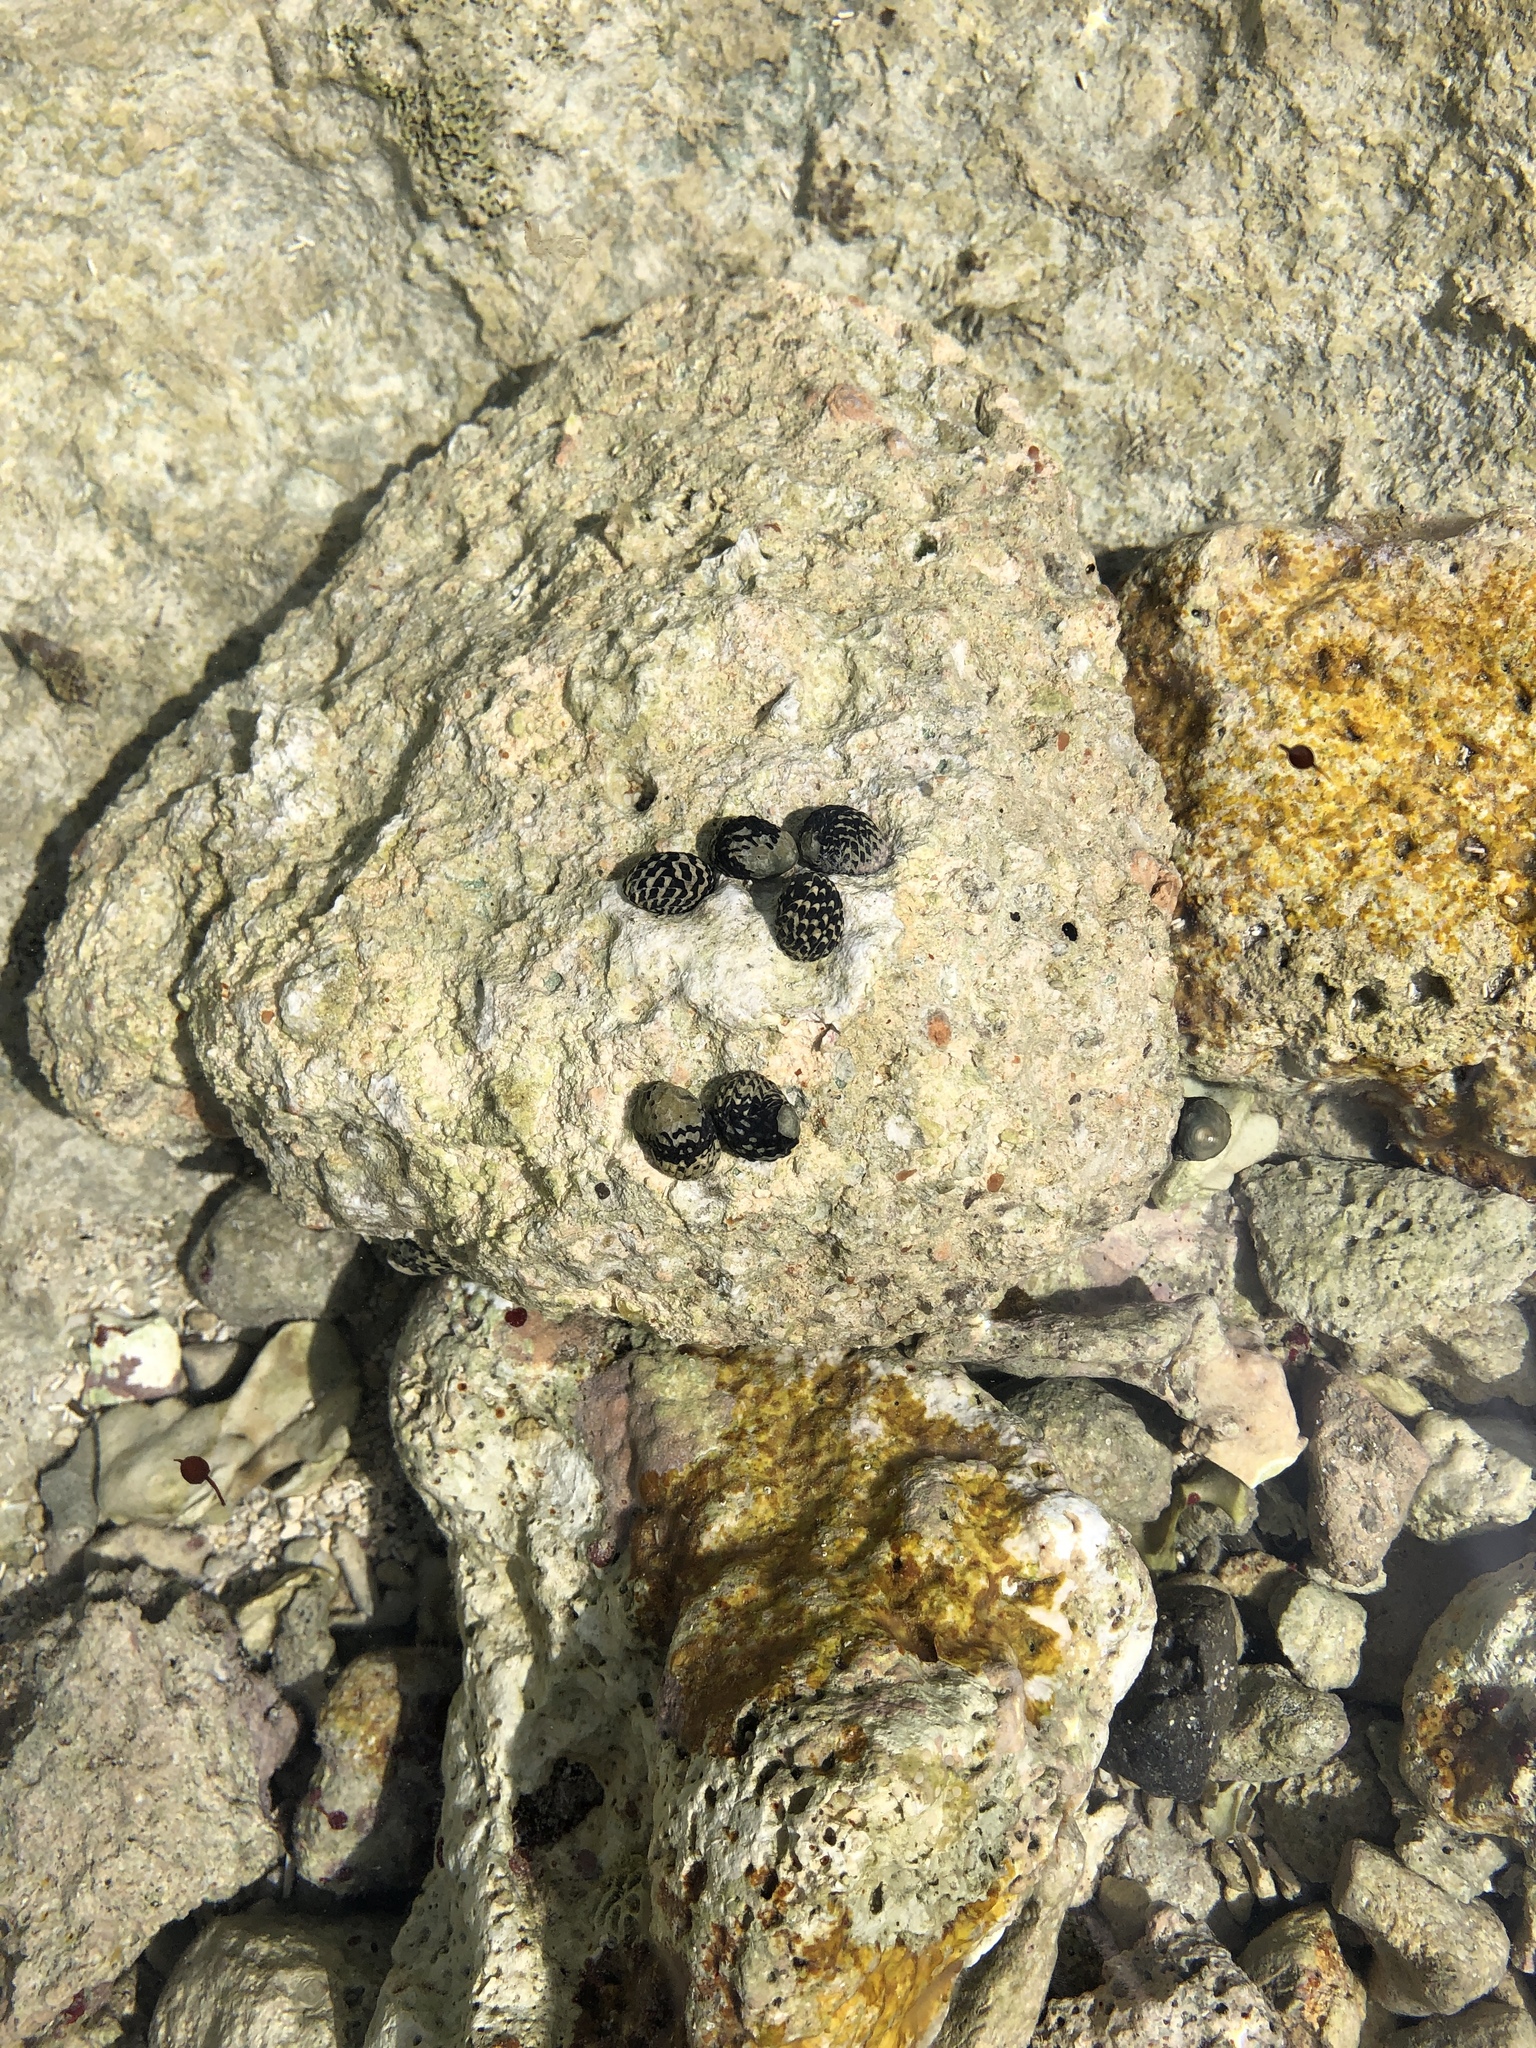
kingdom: Animalia
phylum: Mollusca
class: Gastropoda
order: Cycloneritida
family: Neritidae
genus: Nerita
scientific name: Nerita tessellata
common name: Checkered nerite
